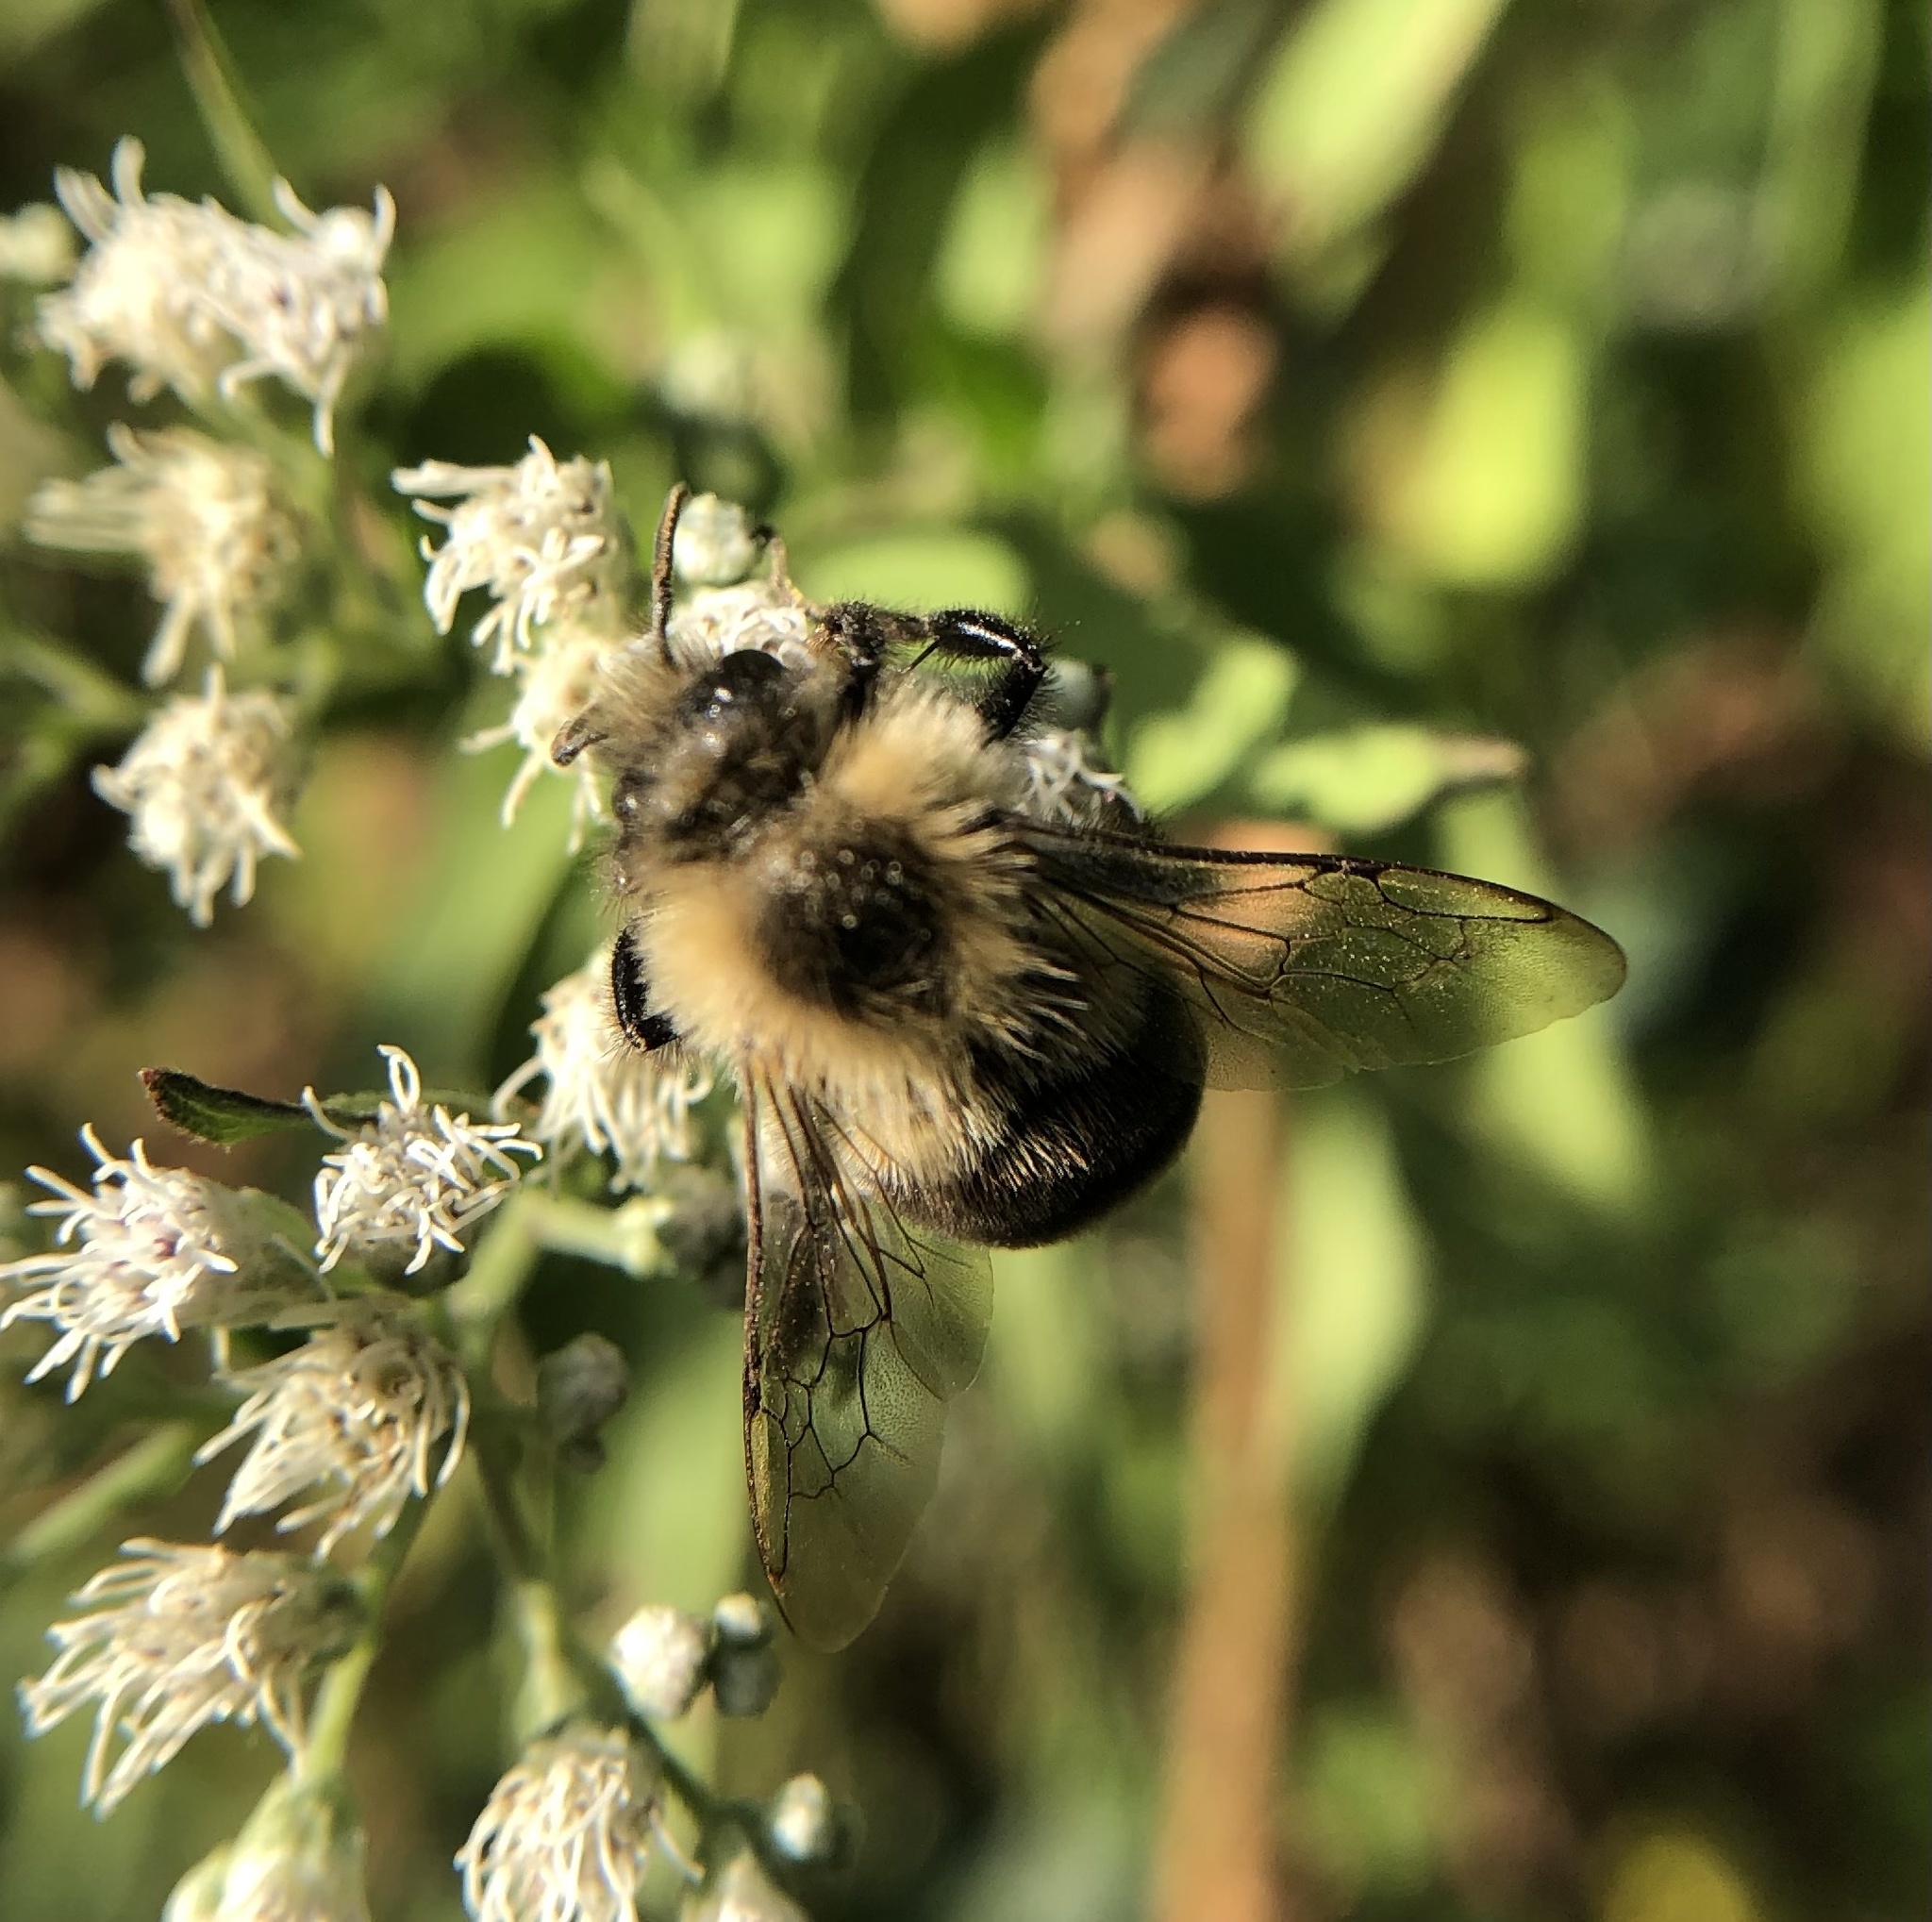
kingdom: Animalia
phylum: Arthropoda
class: Insecta
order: Hymenoptera
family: Apidae
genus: Bombus
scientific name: Bombus impatiens
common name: Common eastern bumble bee
